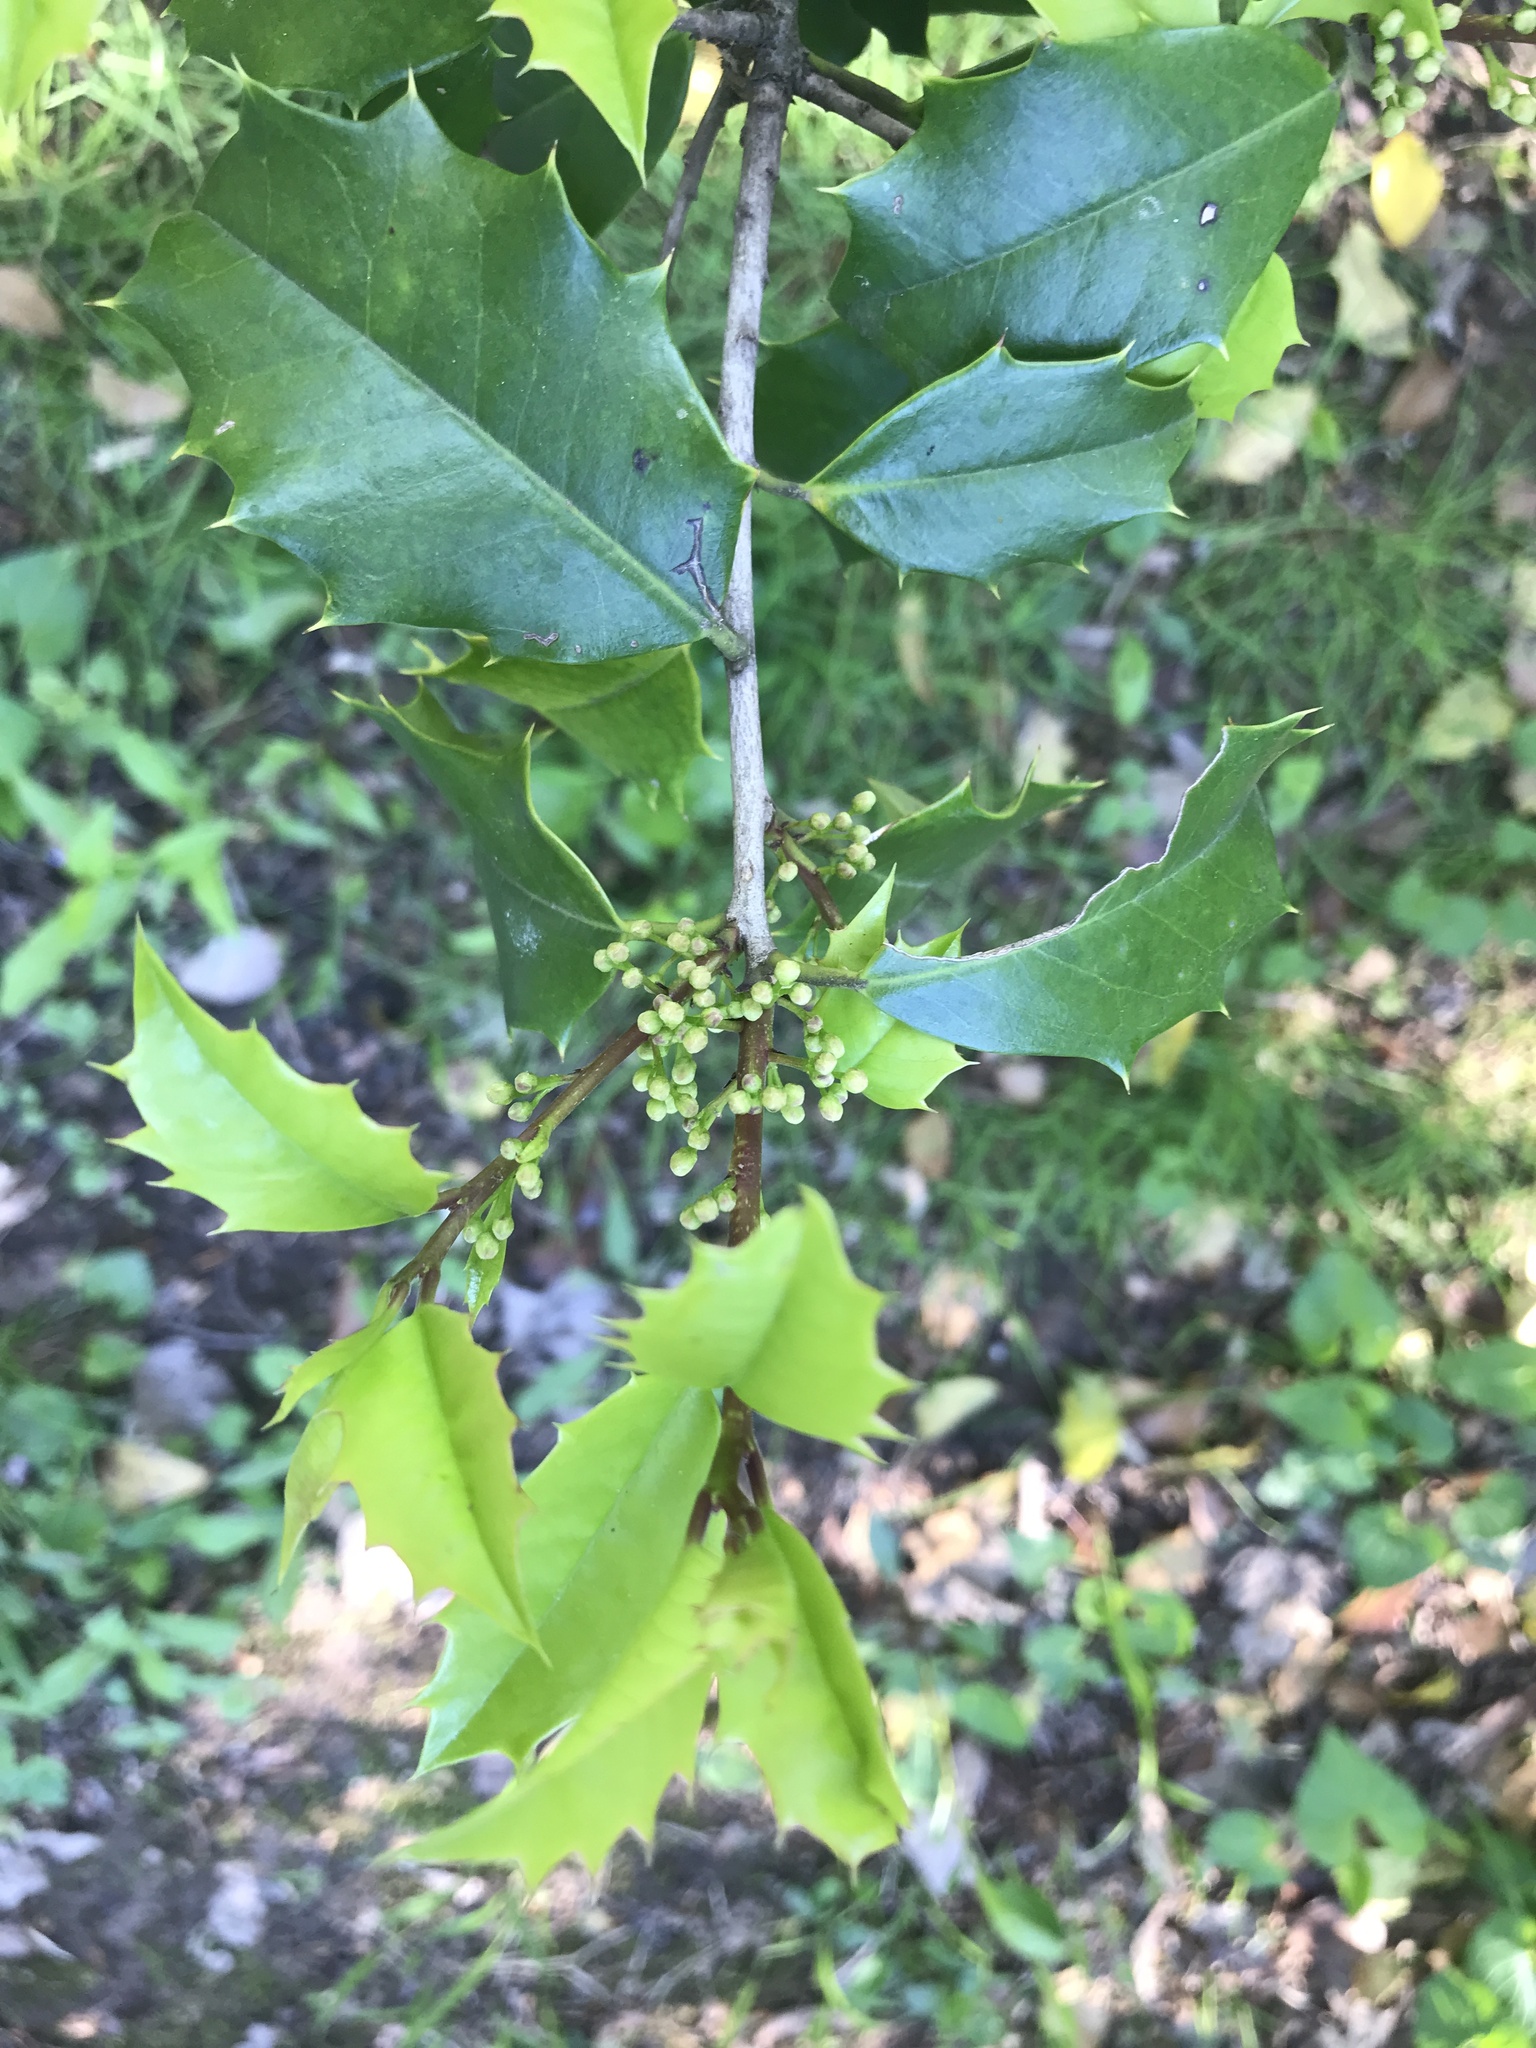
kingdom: Plantae
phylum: Tracheophyta
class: Magnoliopsida
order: Aquifoliales
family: Aquifoliaceae
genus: Ilex
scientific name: Ilex opaca
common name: American holly
